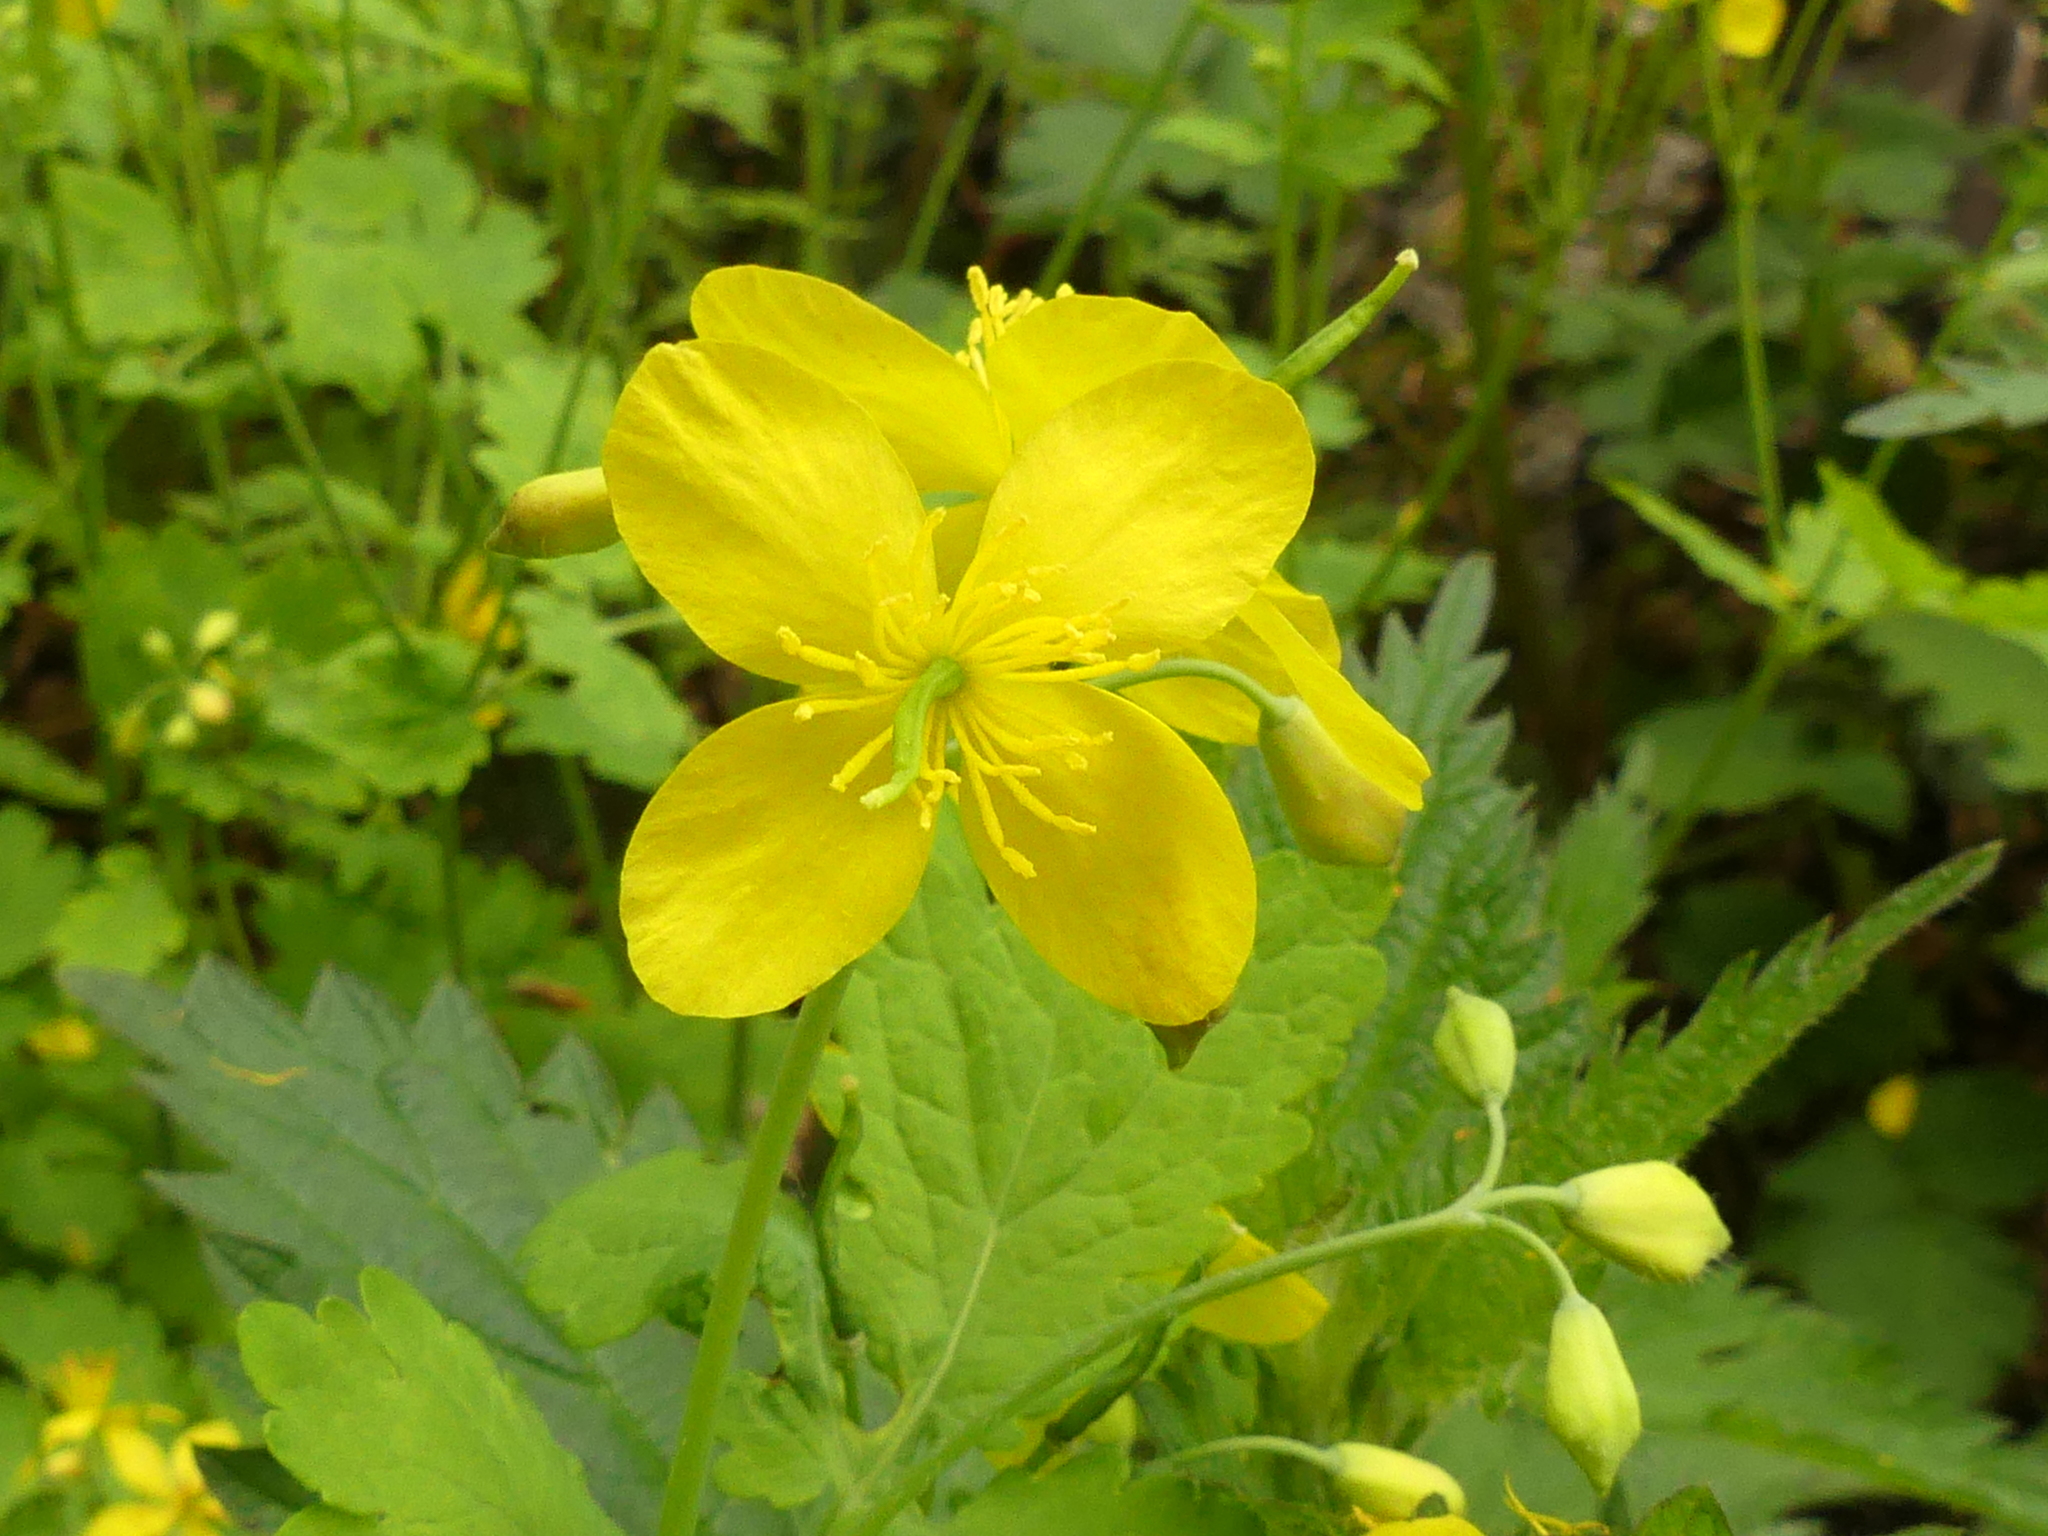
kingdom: Plantae
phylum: Tracheophyta
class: Magnoliopsida
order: Ranunculales
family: Papaveraceae
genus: Chelidonium
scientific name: Chelidonium majus
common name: Greater celandine
